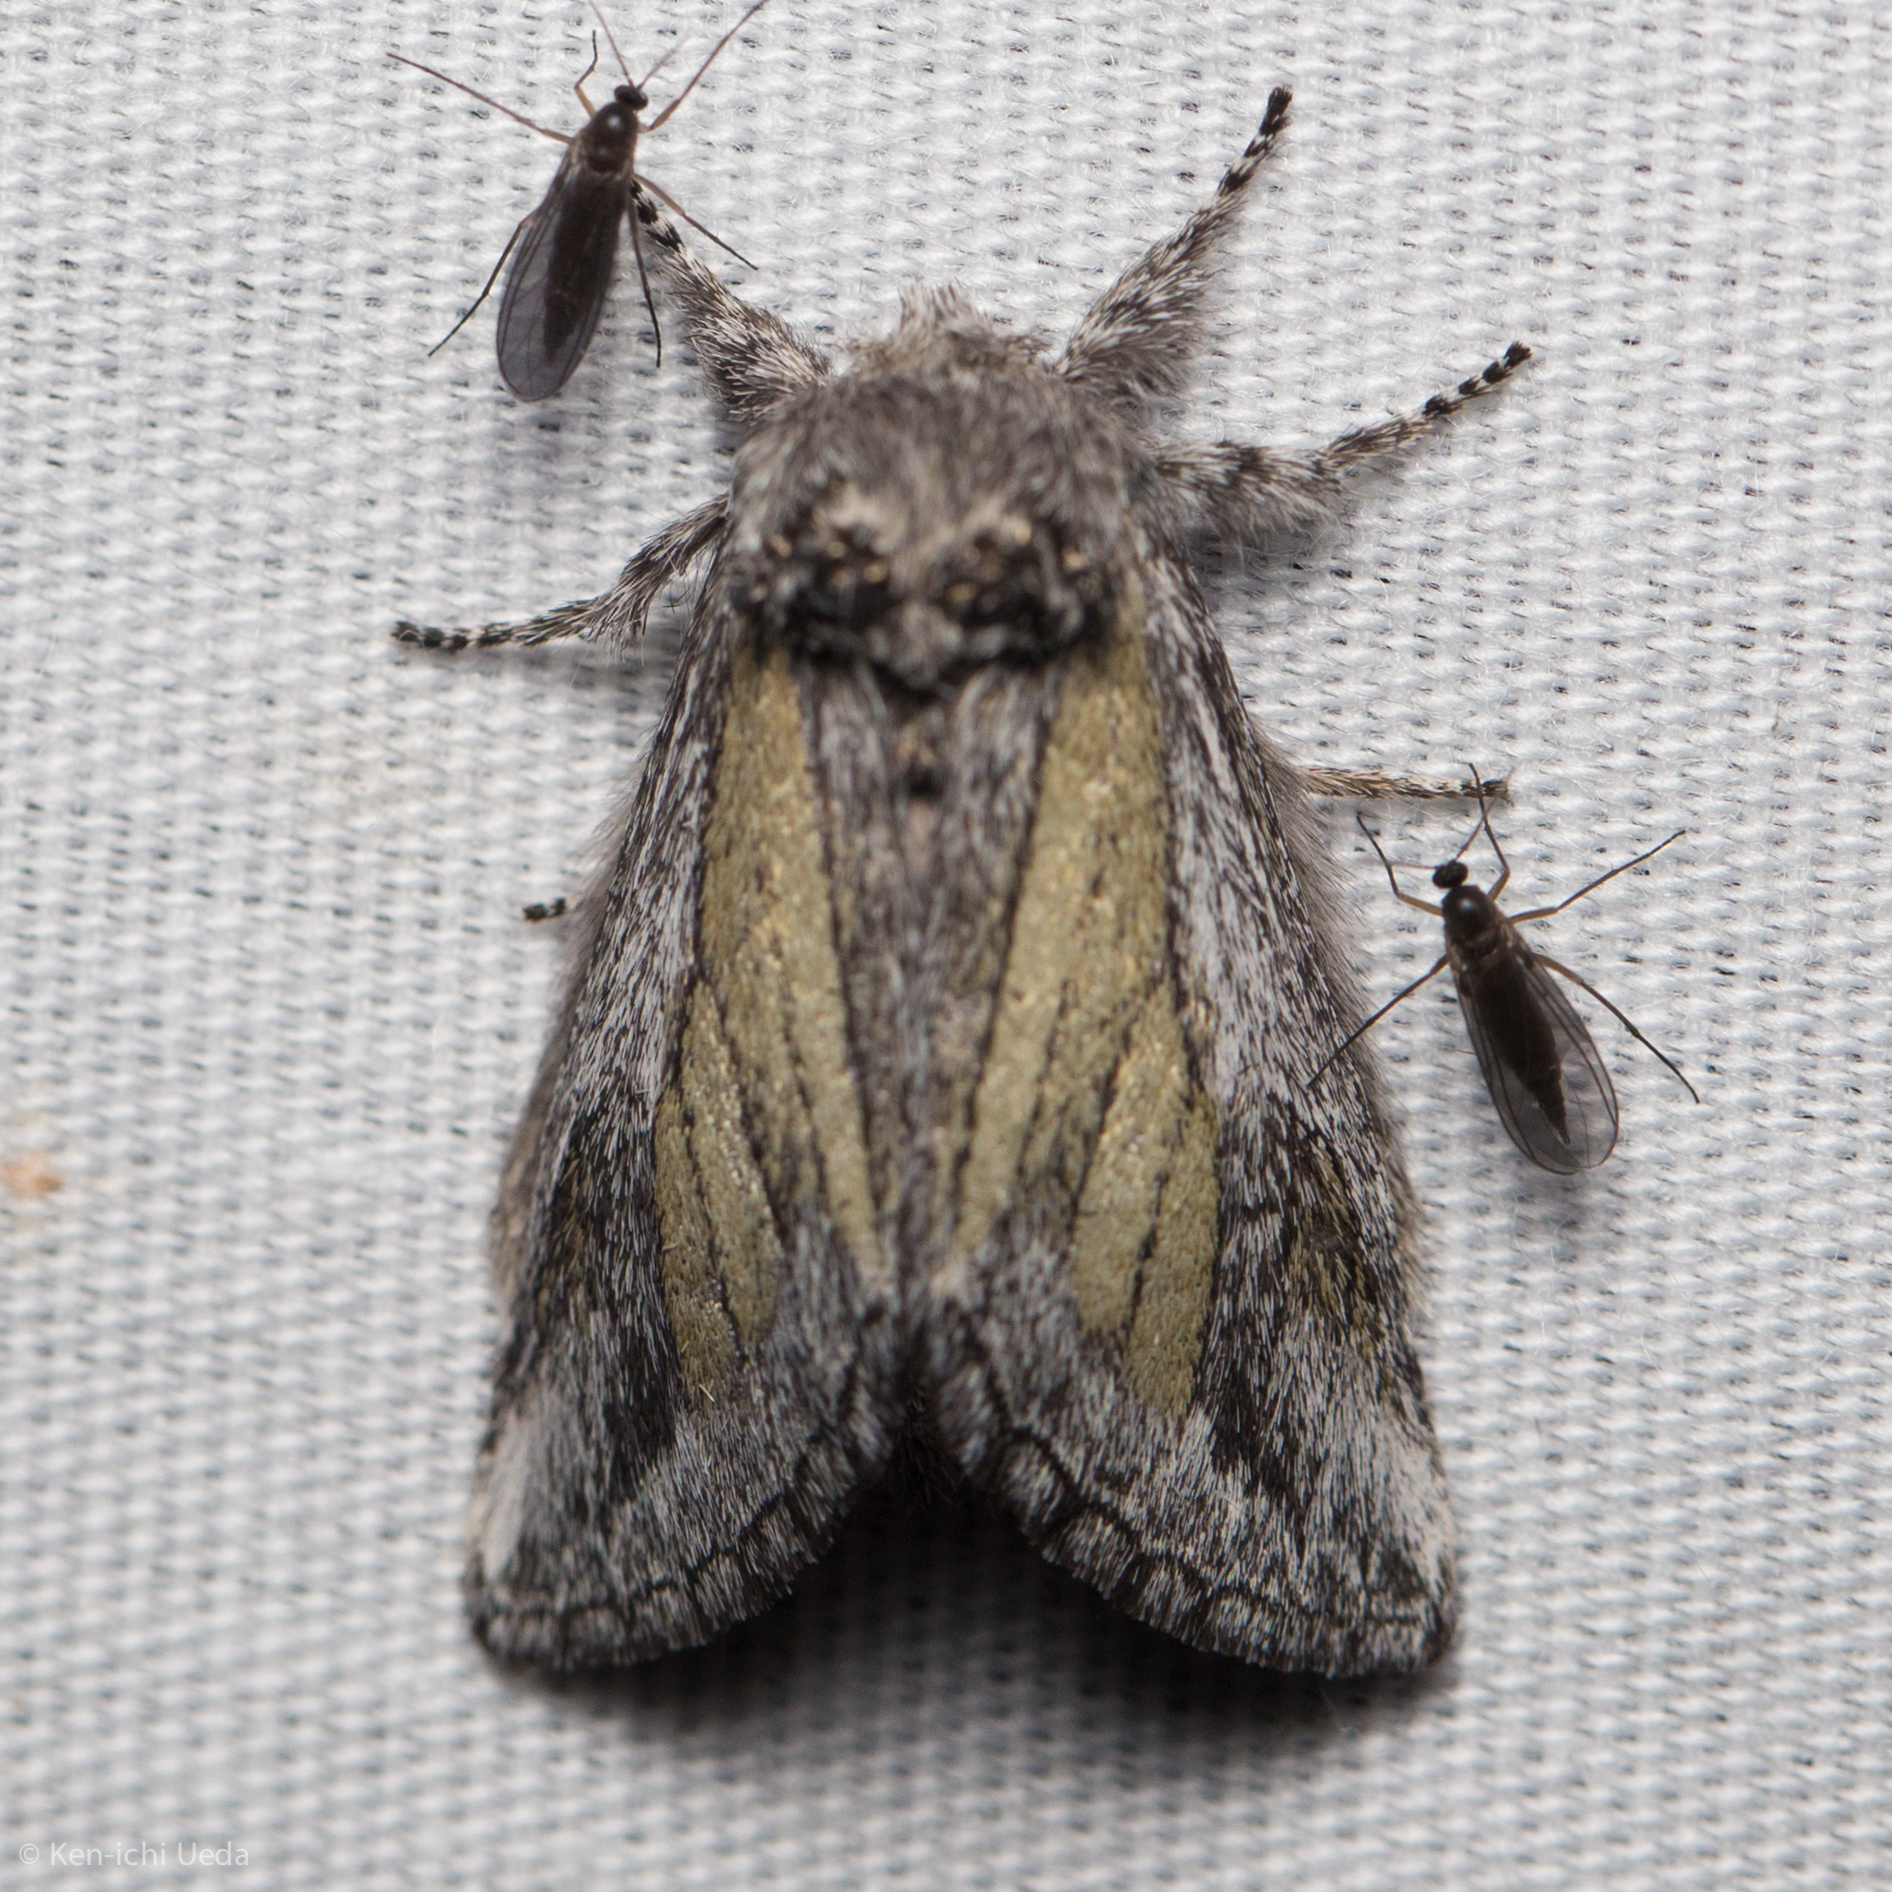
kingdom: Animalia
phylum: Arthropoda
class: Insecta
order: Lepidoptera
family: Notodontidae
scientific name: Notodontidae
